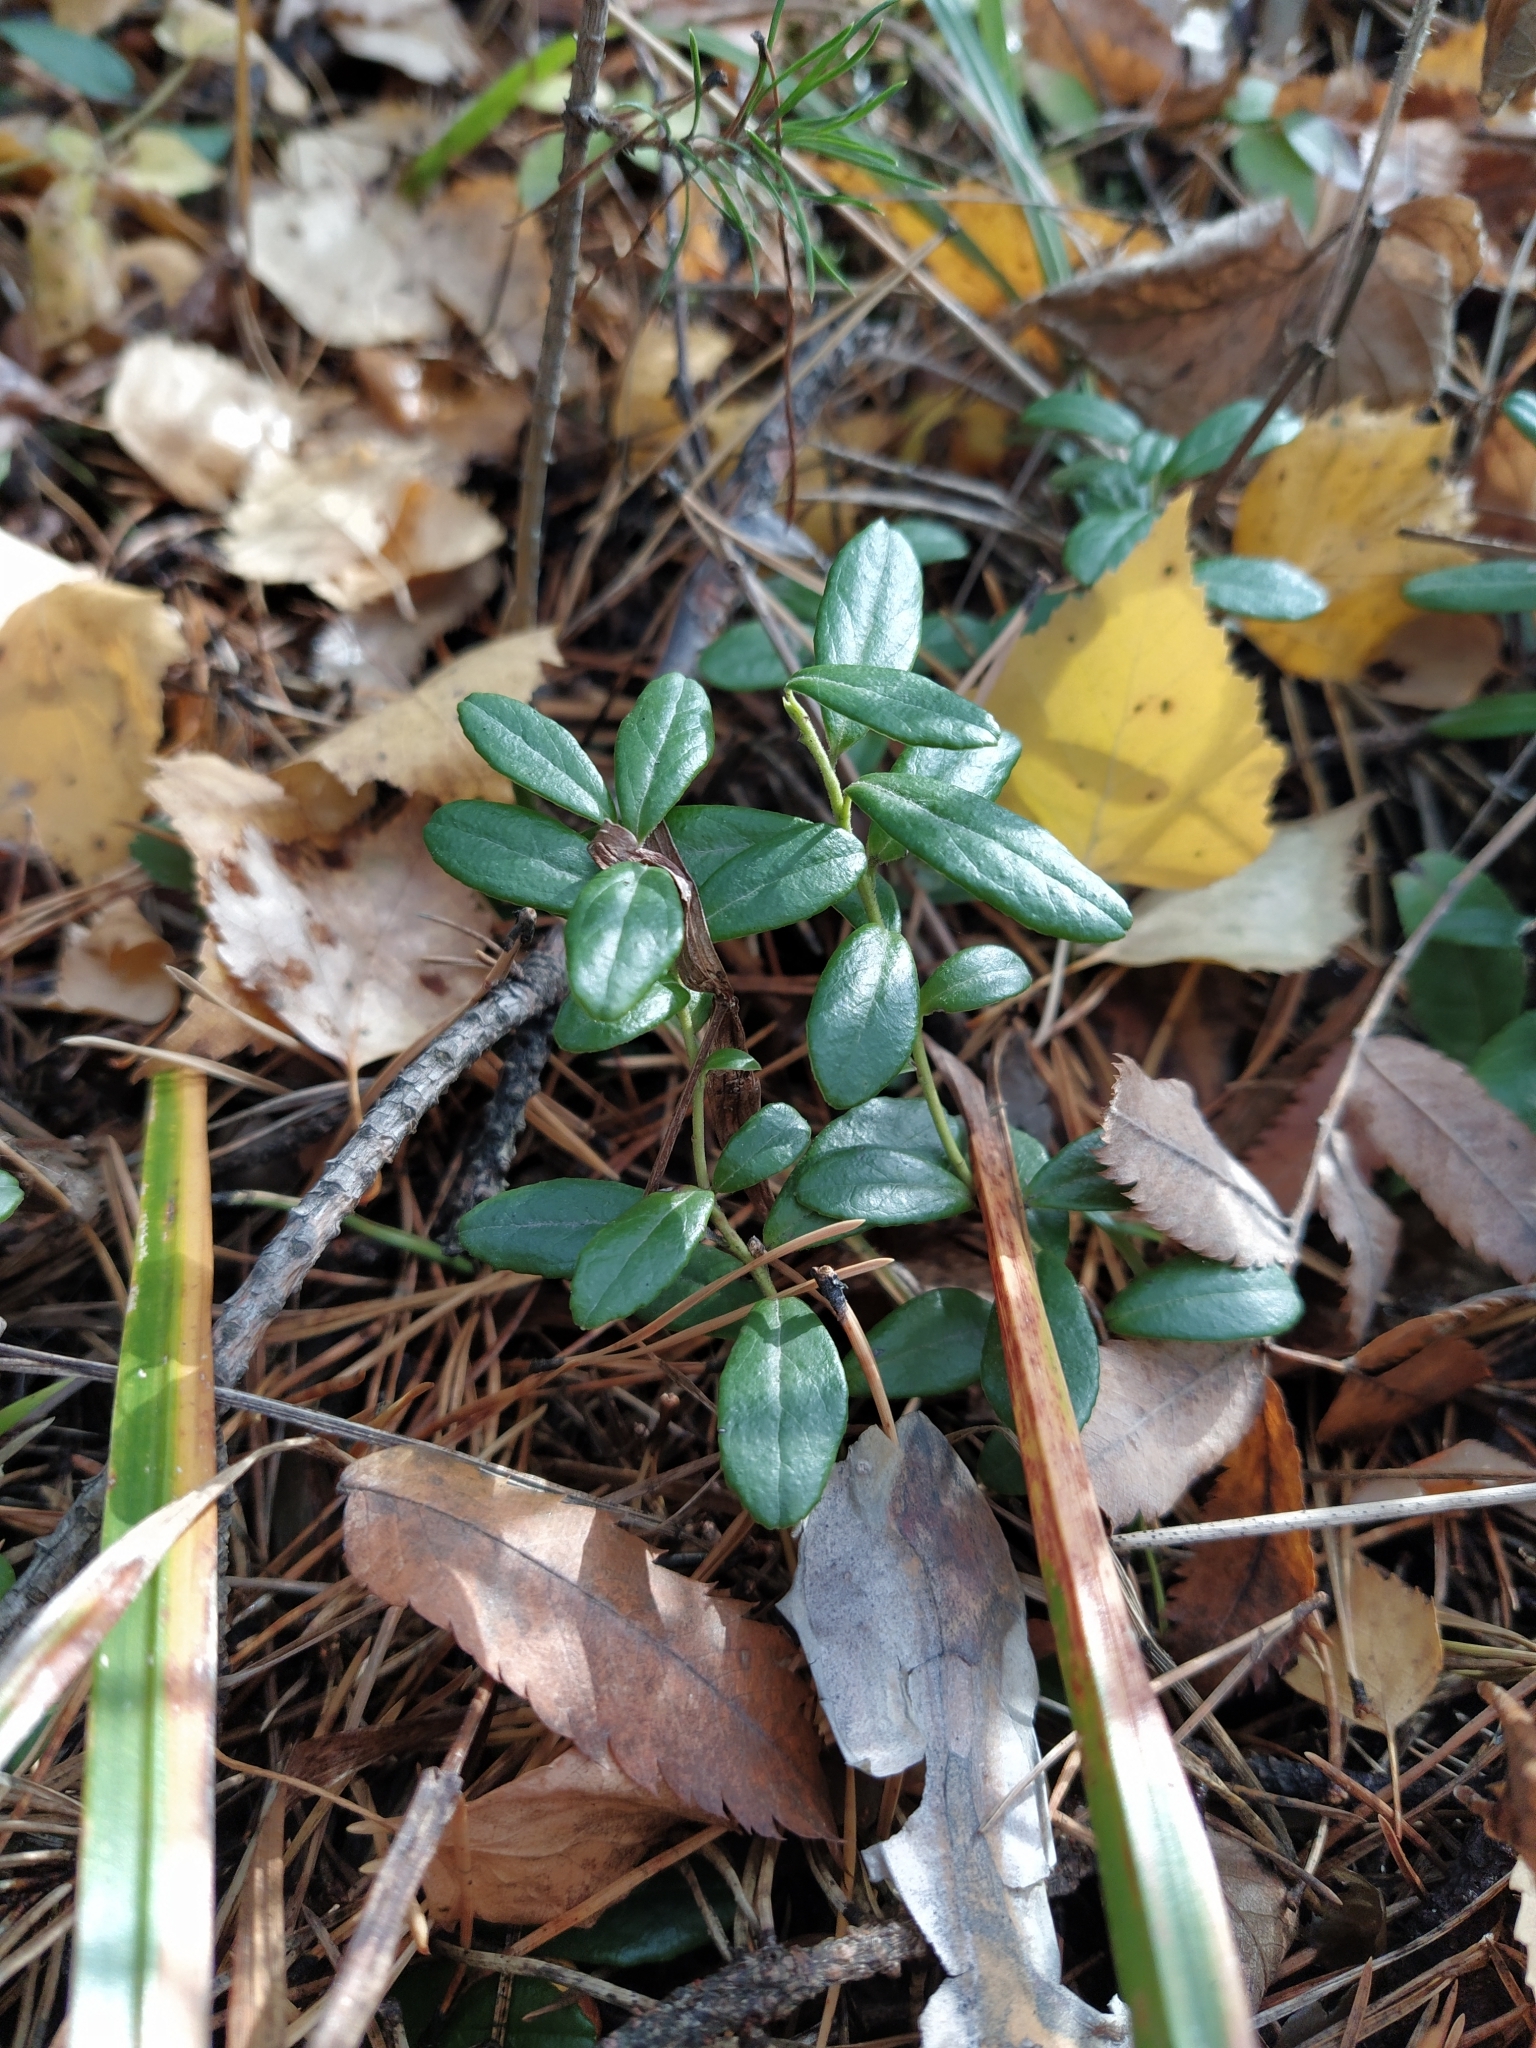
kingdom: Plantae
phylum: Tracheophyta
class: Magnoliopsida
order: Ericales
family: Ericaceae
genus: Vaccinium
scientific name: Vaccinium vitis-idaea
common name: Cowberry
